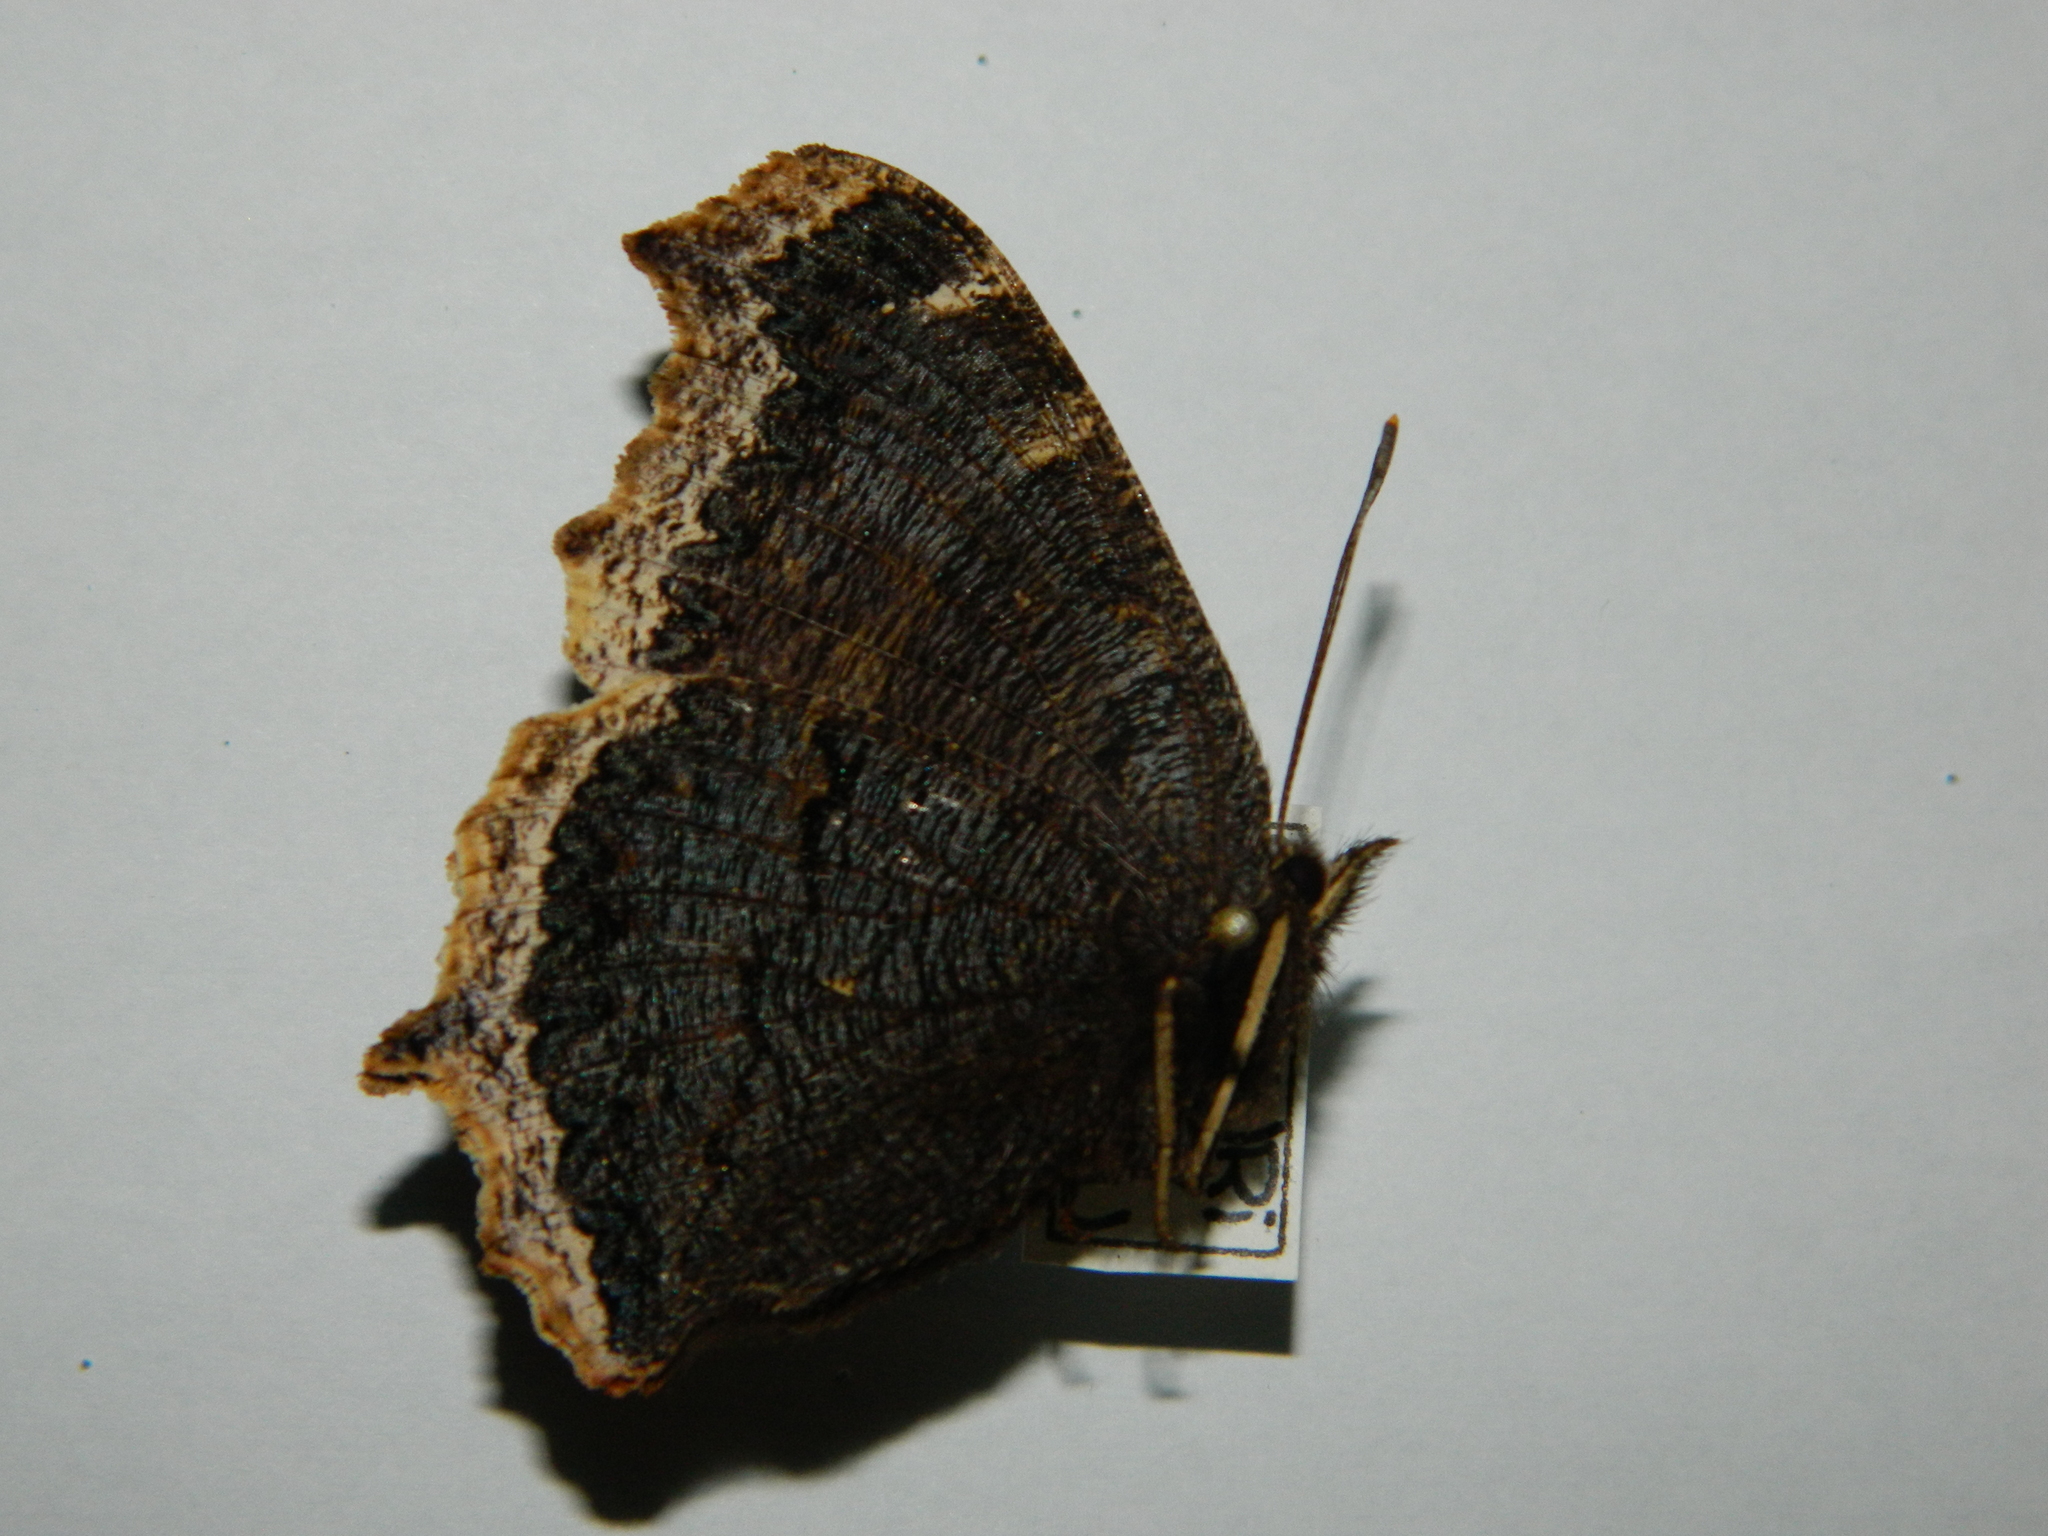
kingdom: Animalia
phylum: Arthropoda
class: Insecta
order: Lepidoptera
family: Nymphalidae
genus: Nymphalis
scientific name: Nymphalis antiopa
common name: Camberwell beauty
